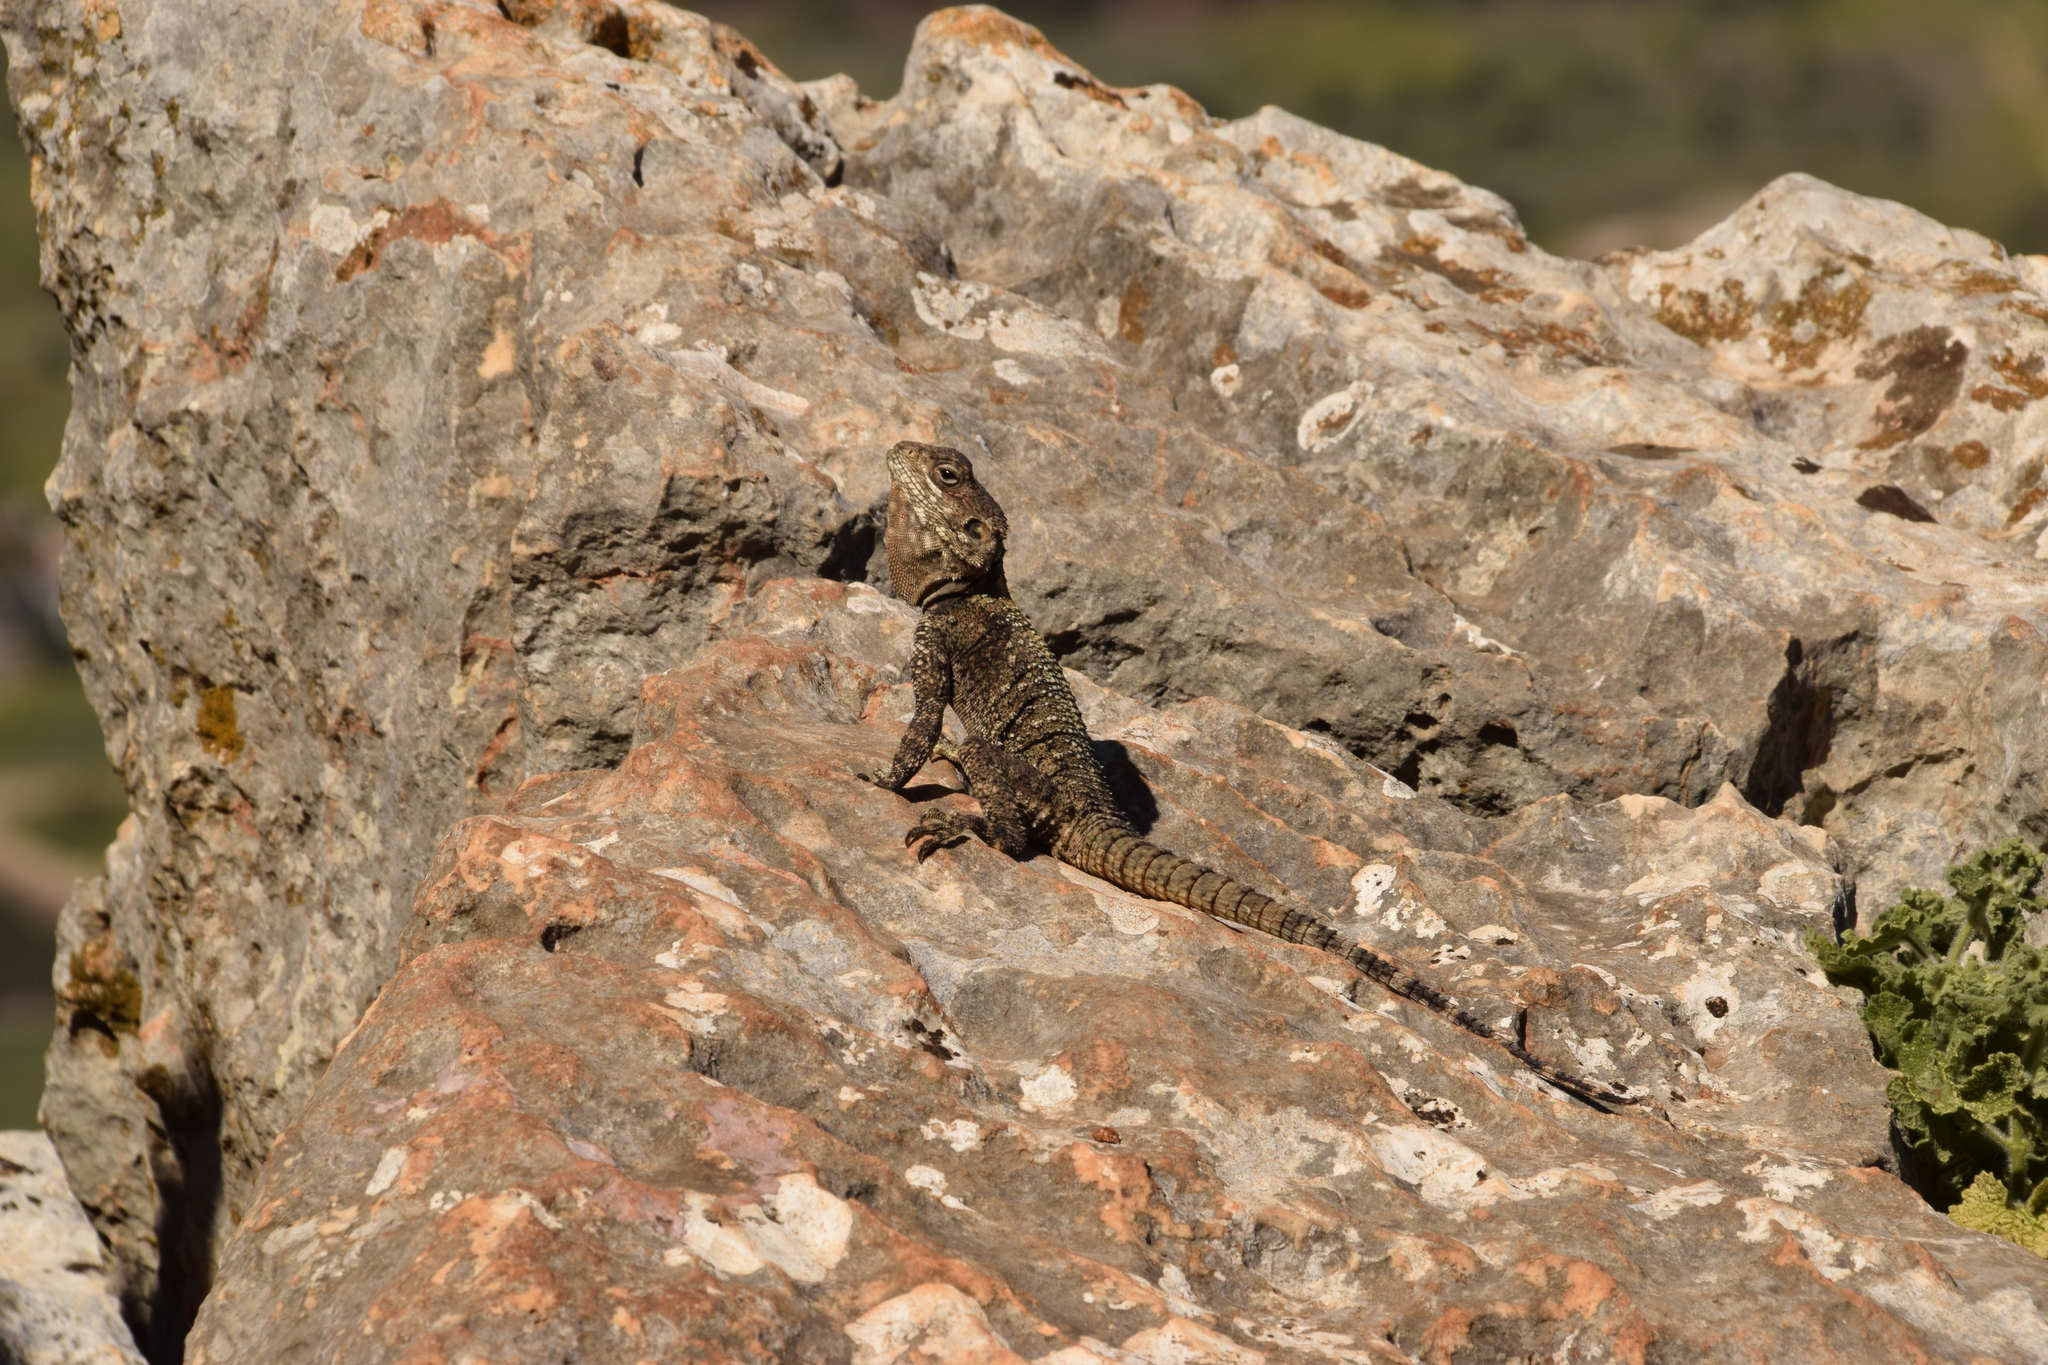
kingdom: Animalia
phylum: Chordata
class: Squamata
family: Agamidae
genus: Laudakia
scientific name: Laudakia vulgaris
